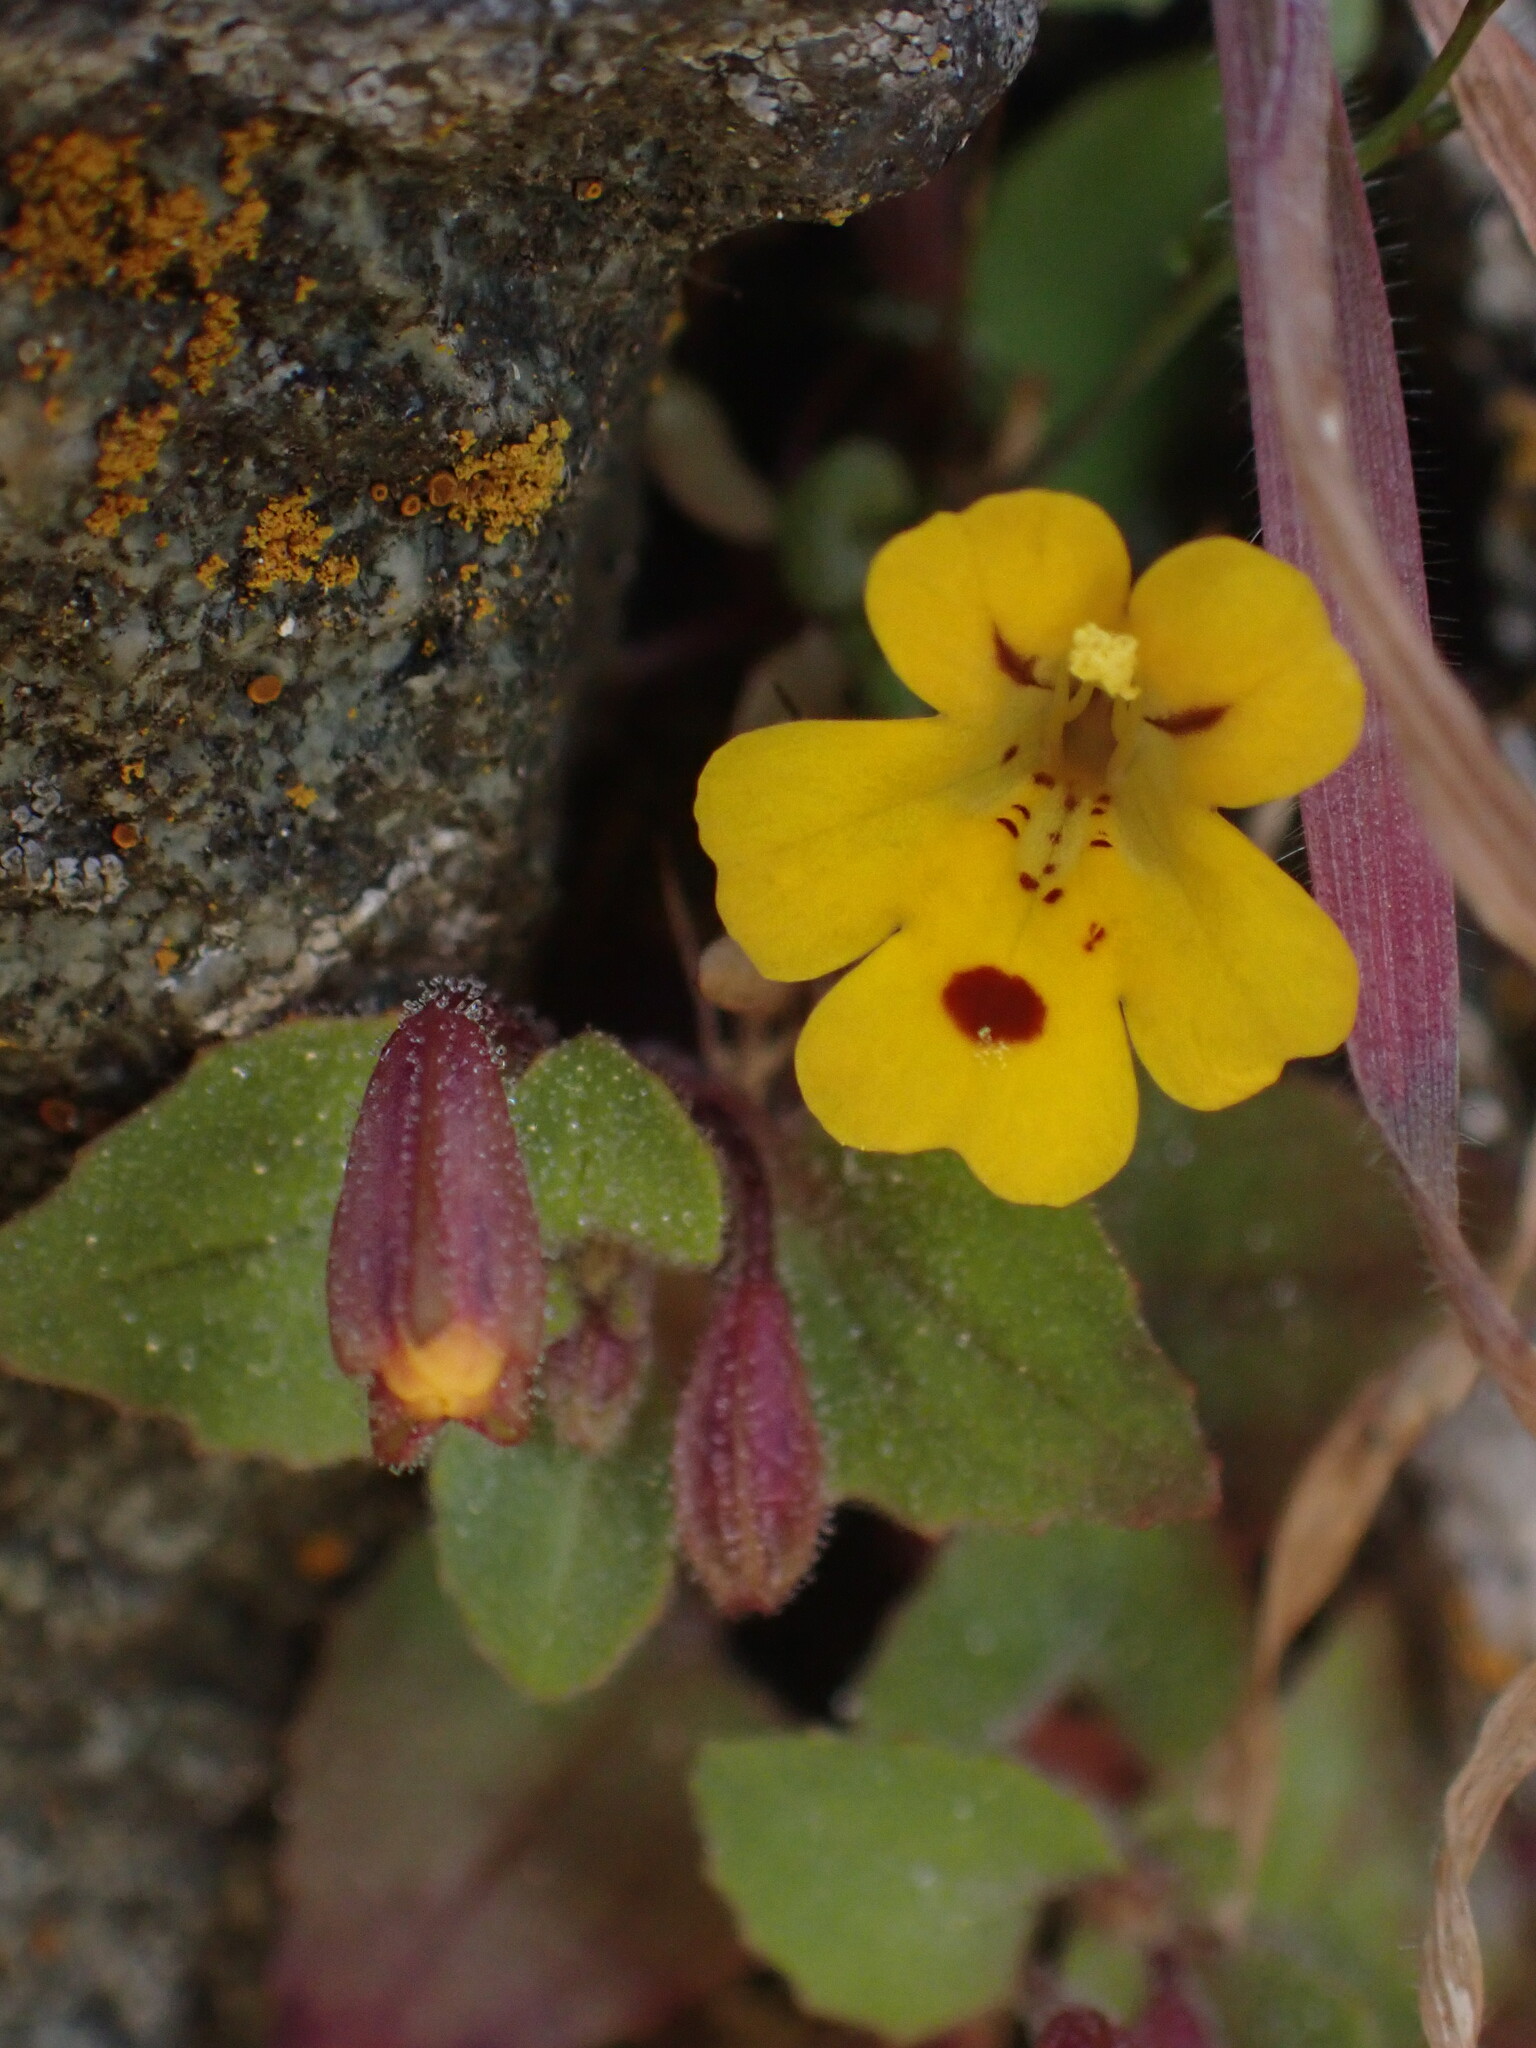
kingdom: Plantae
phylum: Tracheophyta
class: Magnoliopsida
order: Lamiales
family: Phrymaceae
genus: Erythranthe
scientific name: Erythranthe alsinoides
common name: Chickweed monkeyflower
